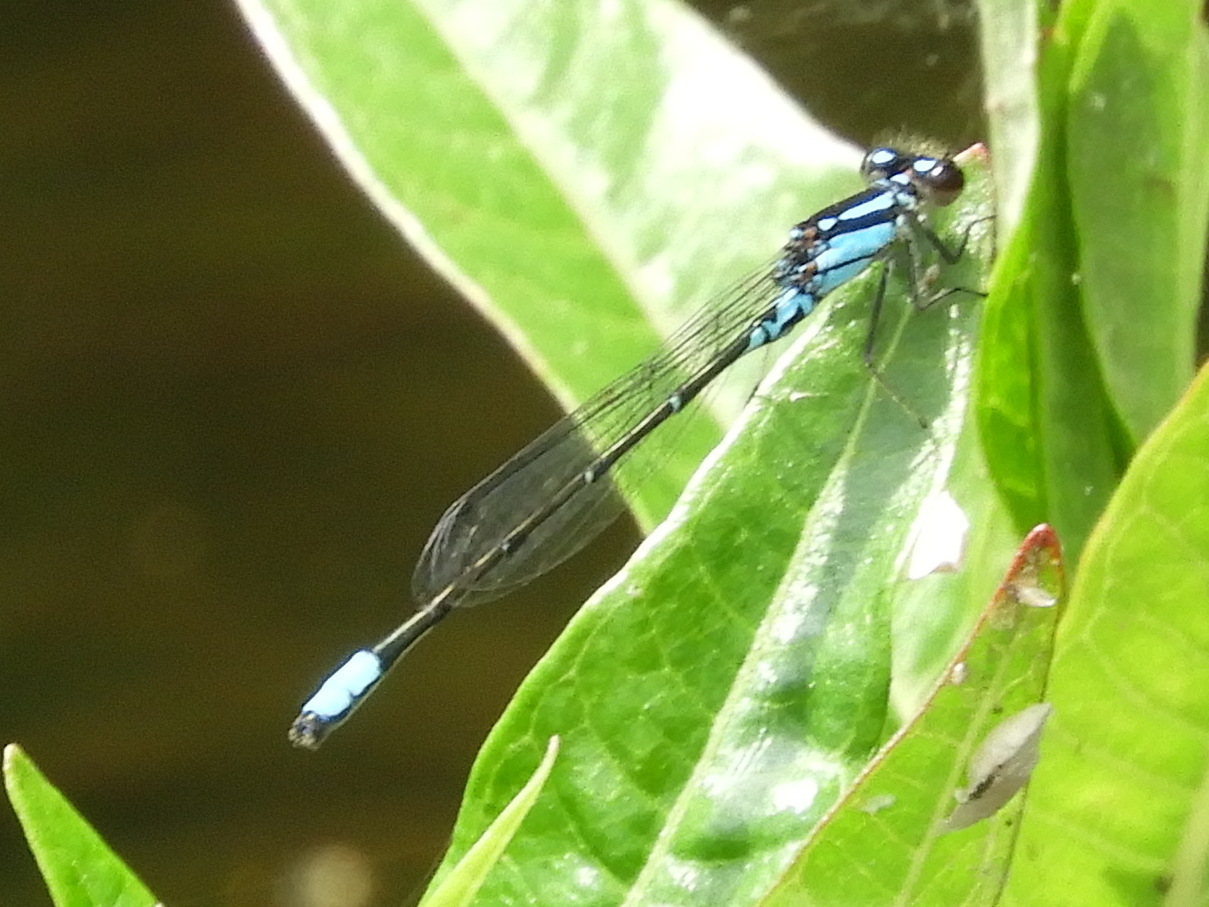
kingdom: Animalia
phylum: Arthropoda
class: Insecta
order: Odonata
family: Coenagrionidae
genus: Enallagma
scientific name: Enallagma geminatum
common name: Skimming bluet
